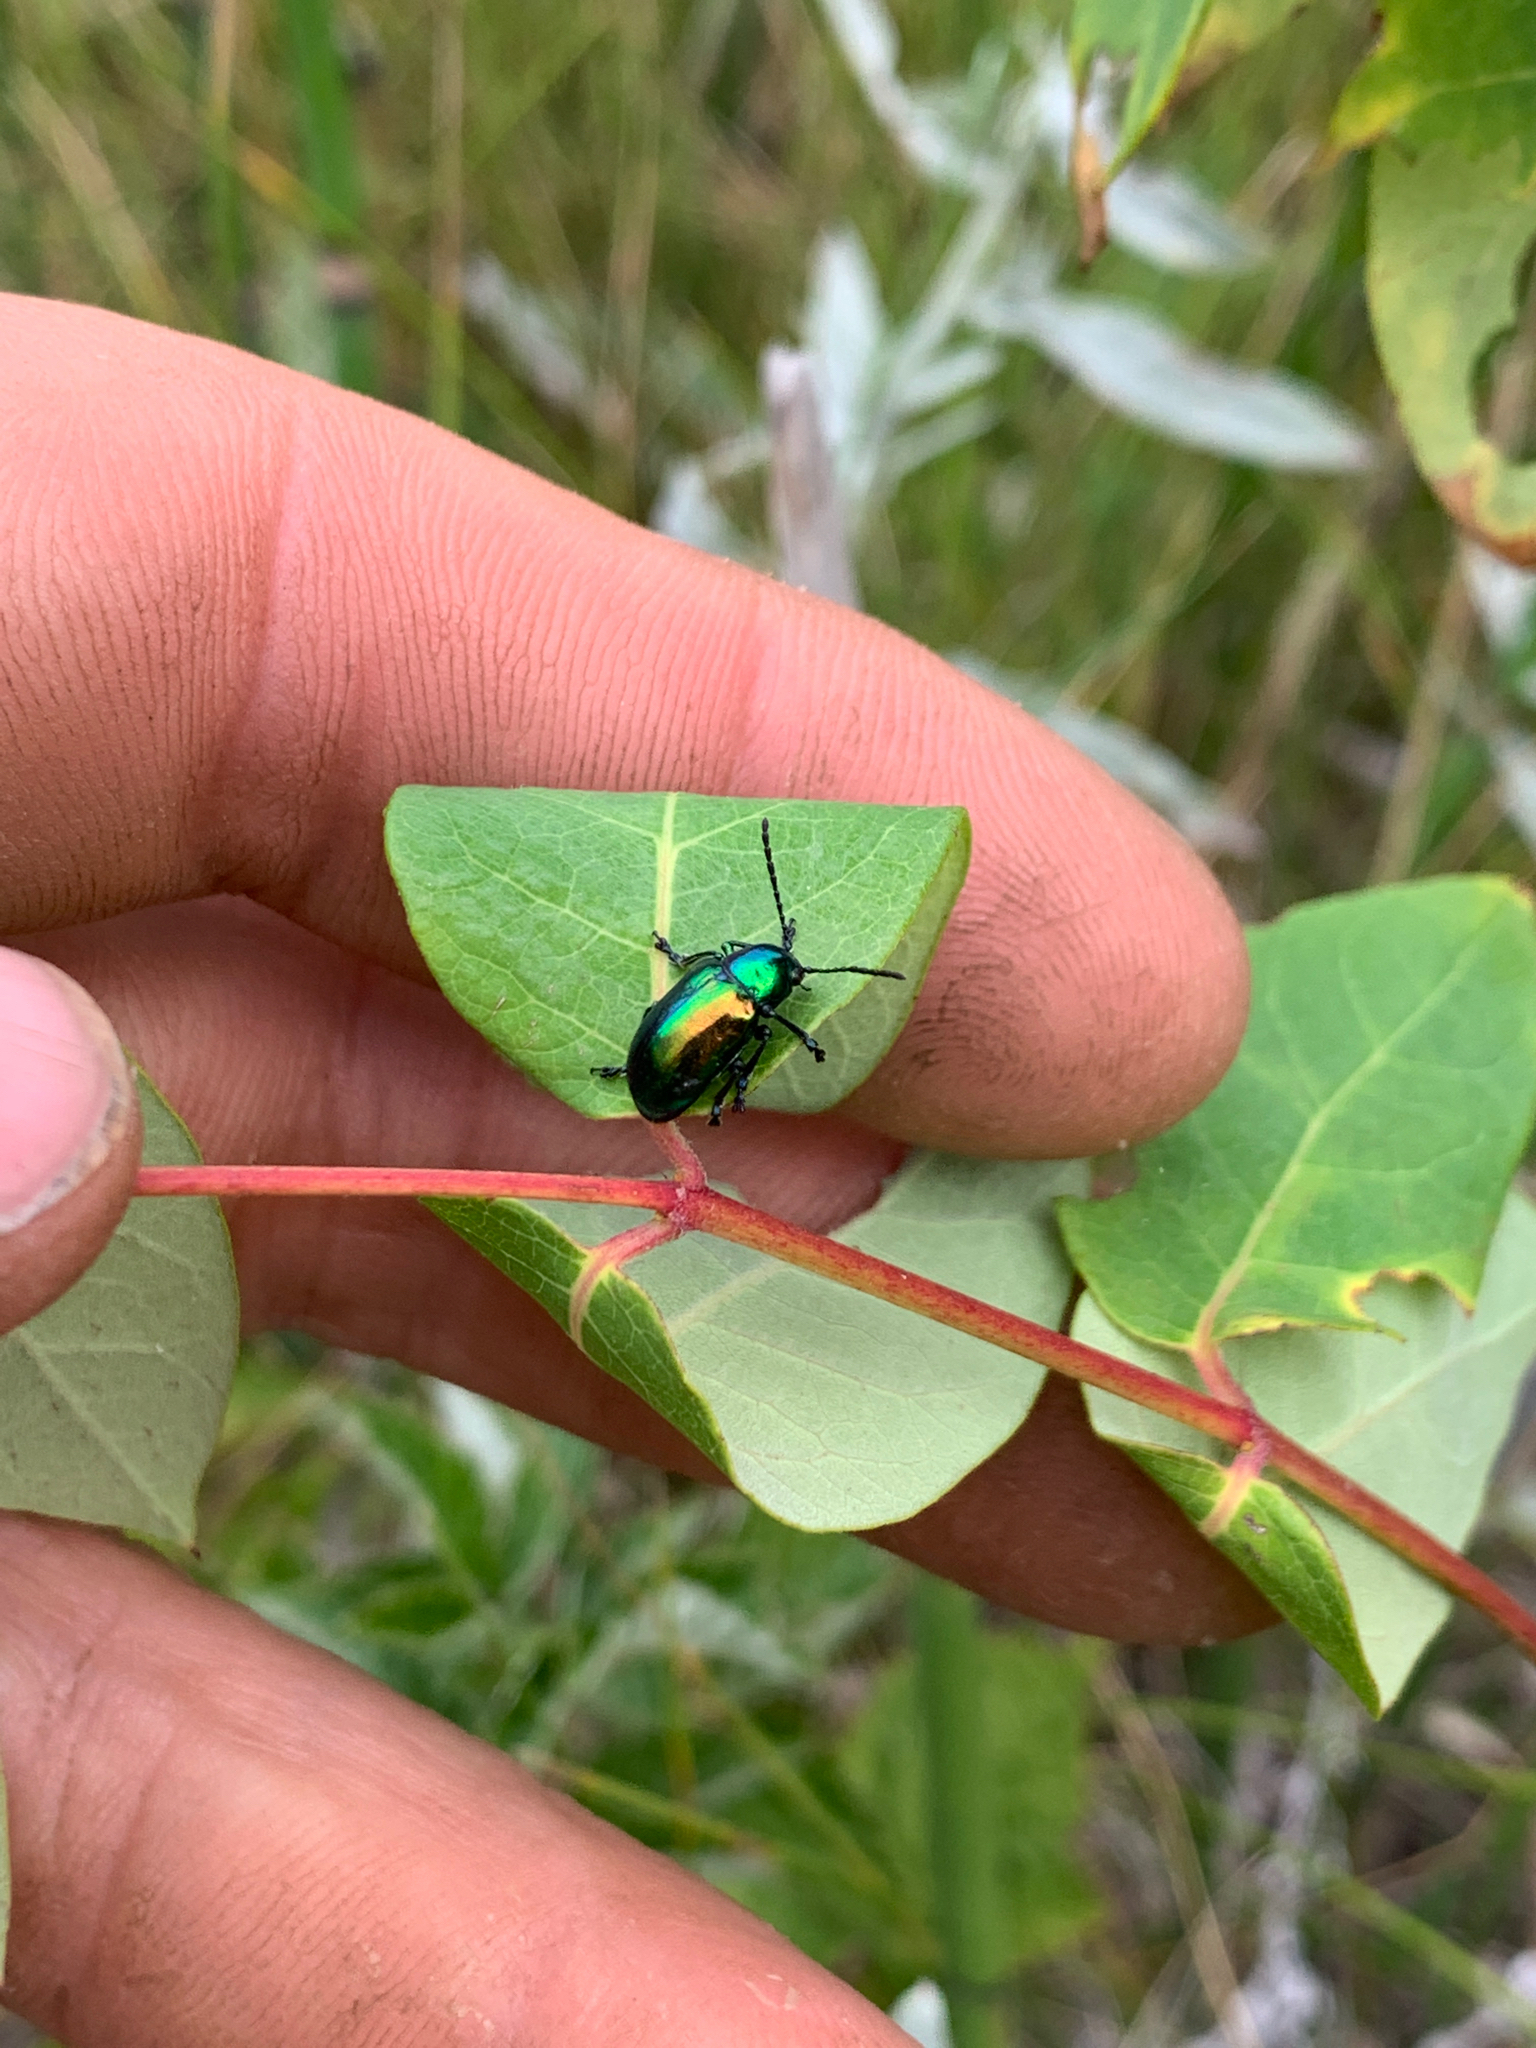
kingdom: Animalia
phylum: Arthropoda
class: Insecta
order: Coleoptera
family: Chrysomelidae
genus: Chrysochus
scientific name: Chrysochus auratus
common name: Dogbane leaf beetle
